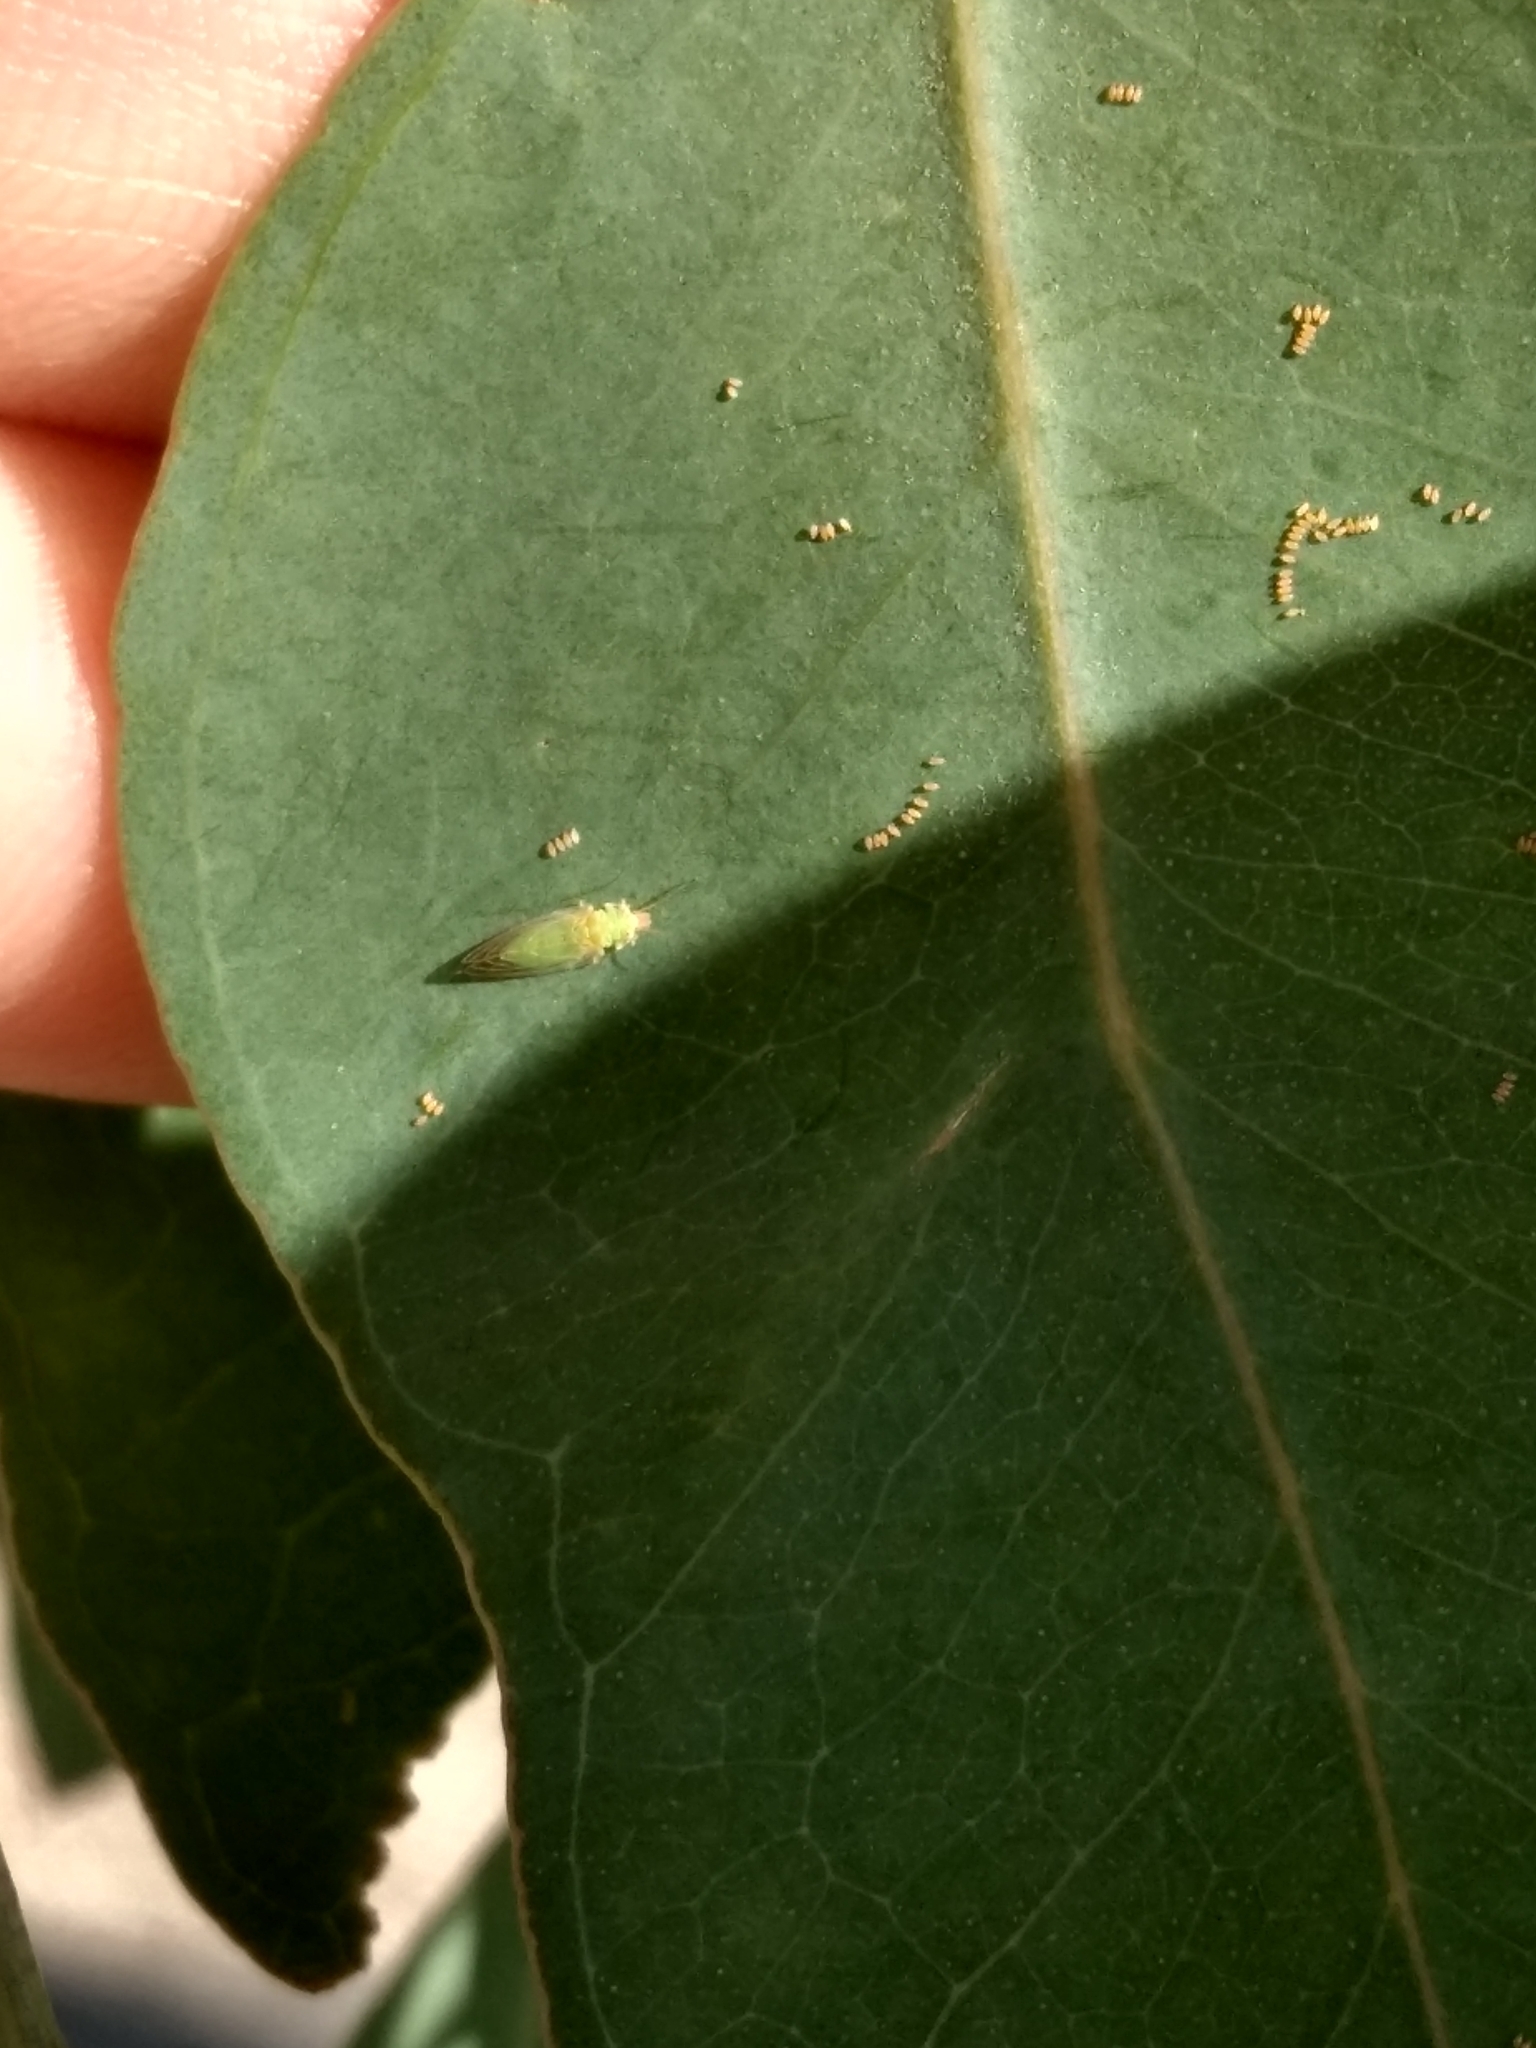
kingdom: Animalia
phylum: Arthropoda
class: Insecta
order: Hemiptera
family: Aphalaridae
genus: Glycaspis
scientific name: Glycaspis brimblecombei
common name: Red gum lerp psyllid
